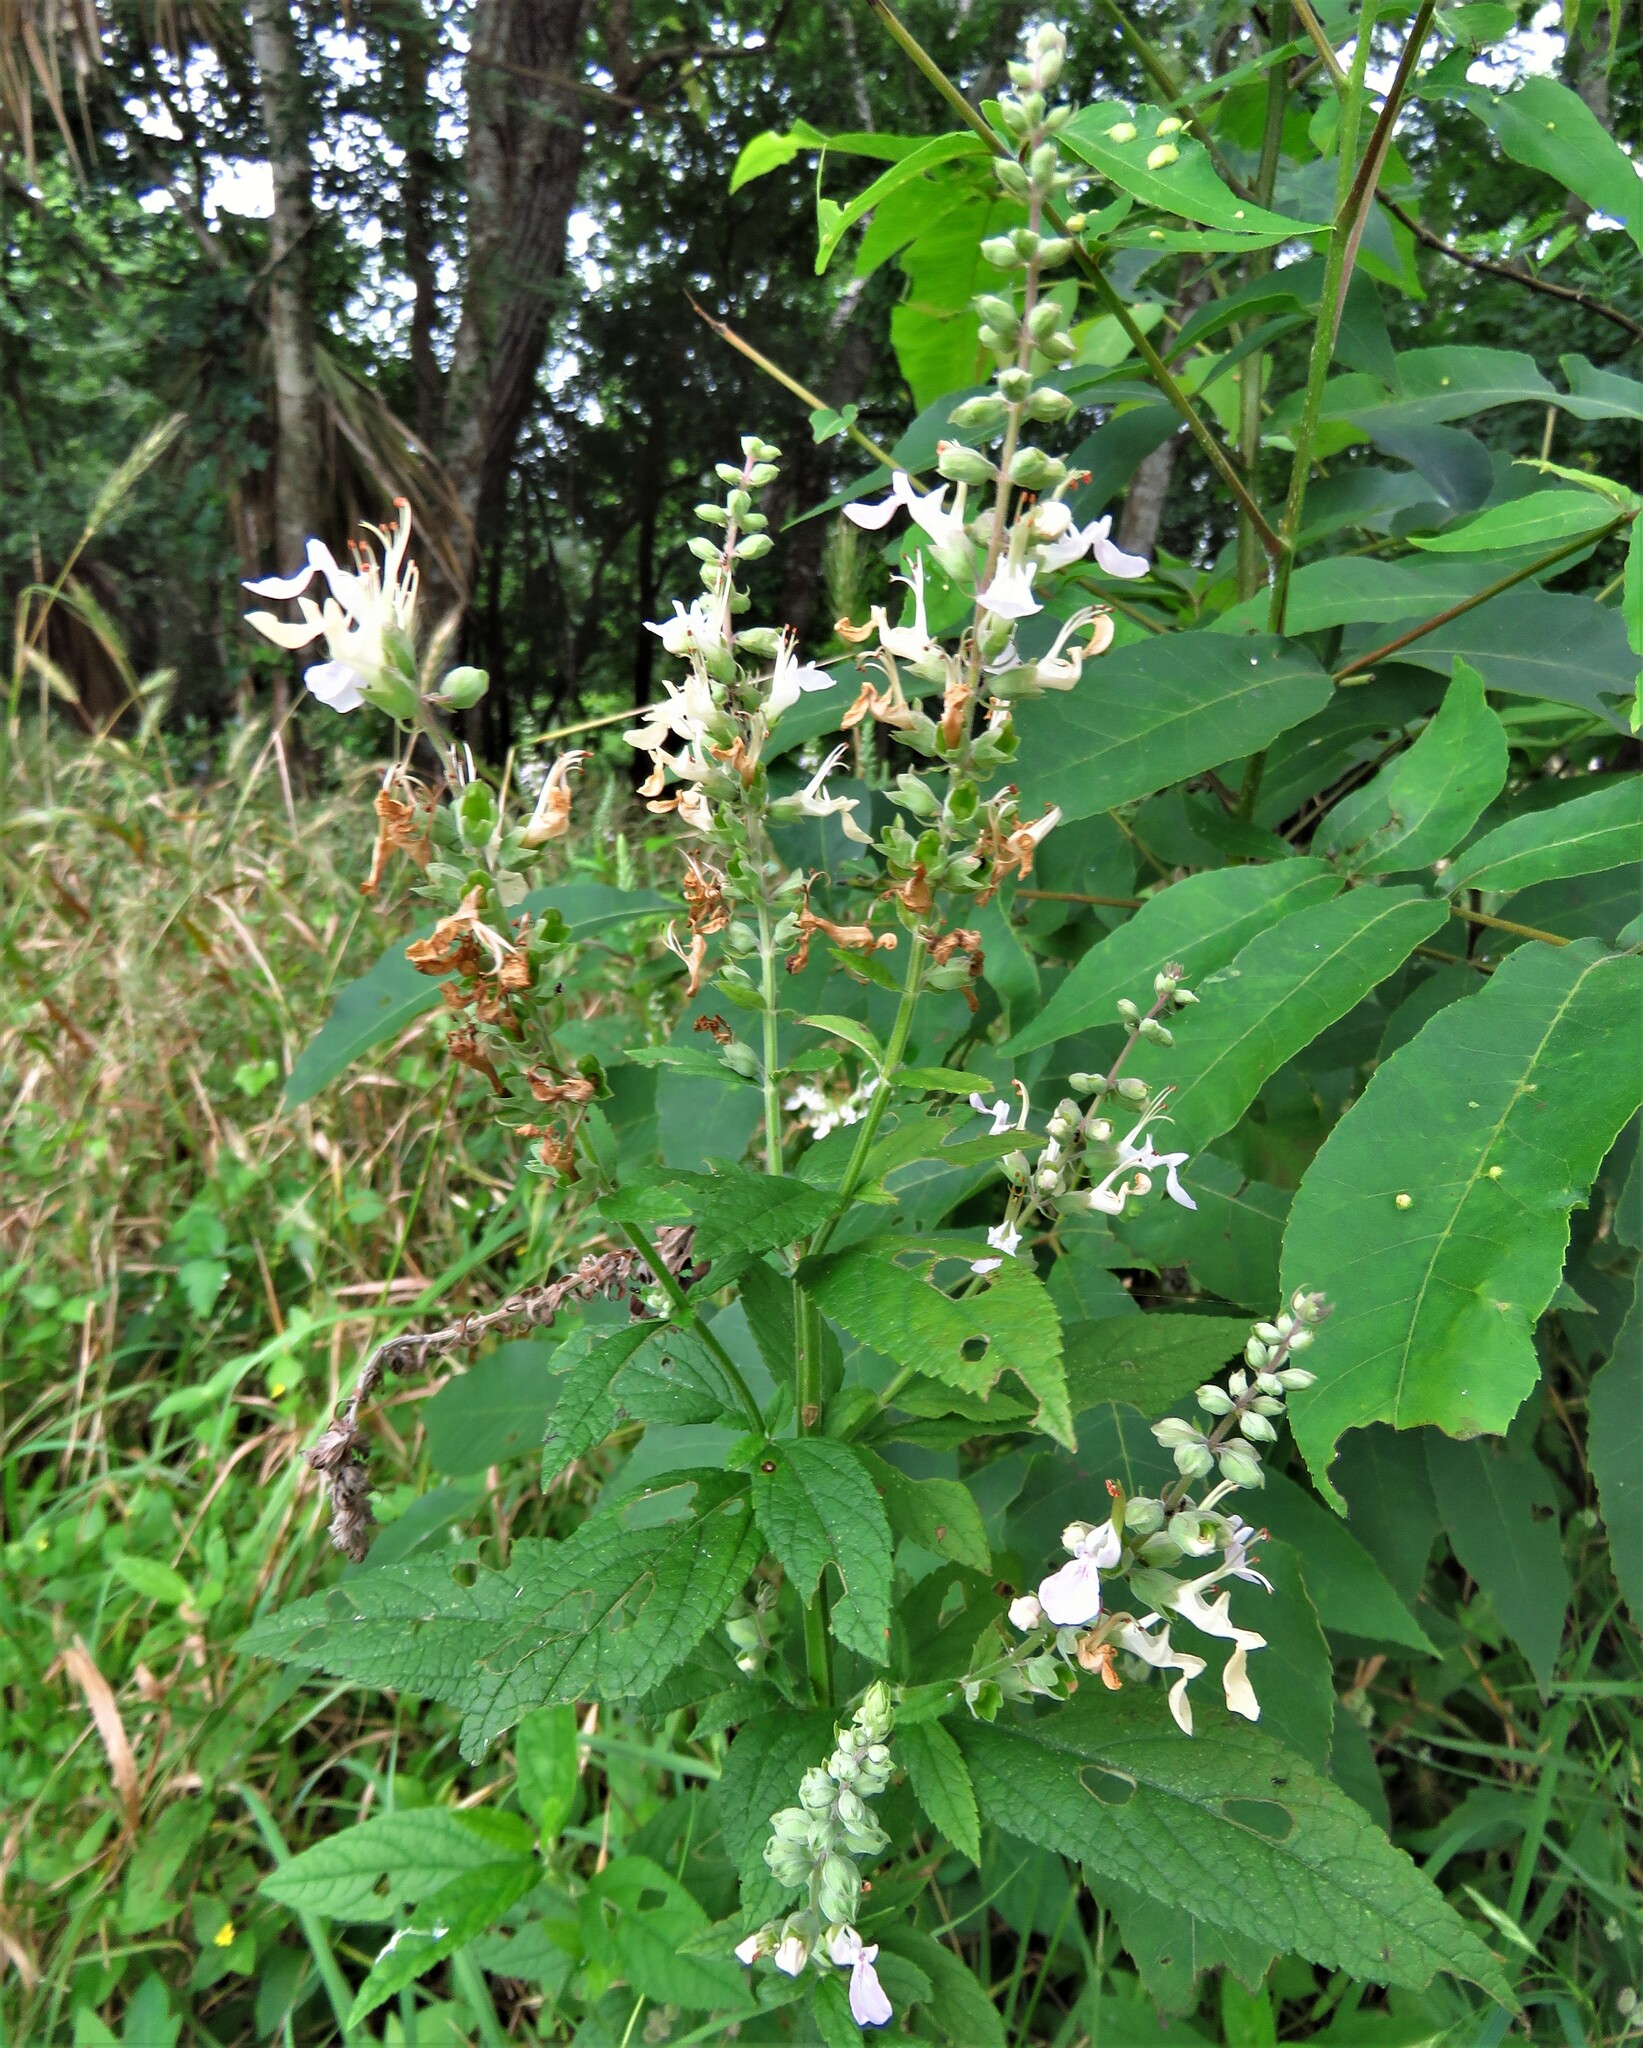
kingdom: Plantae
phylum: Tracheophyta
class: Magnoliopsida
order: Lamiales
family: Lamiaceae
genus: Teucrium
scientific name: Teucrium canadense
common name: American germander
